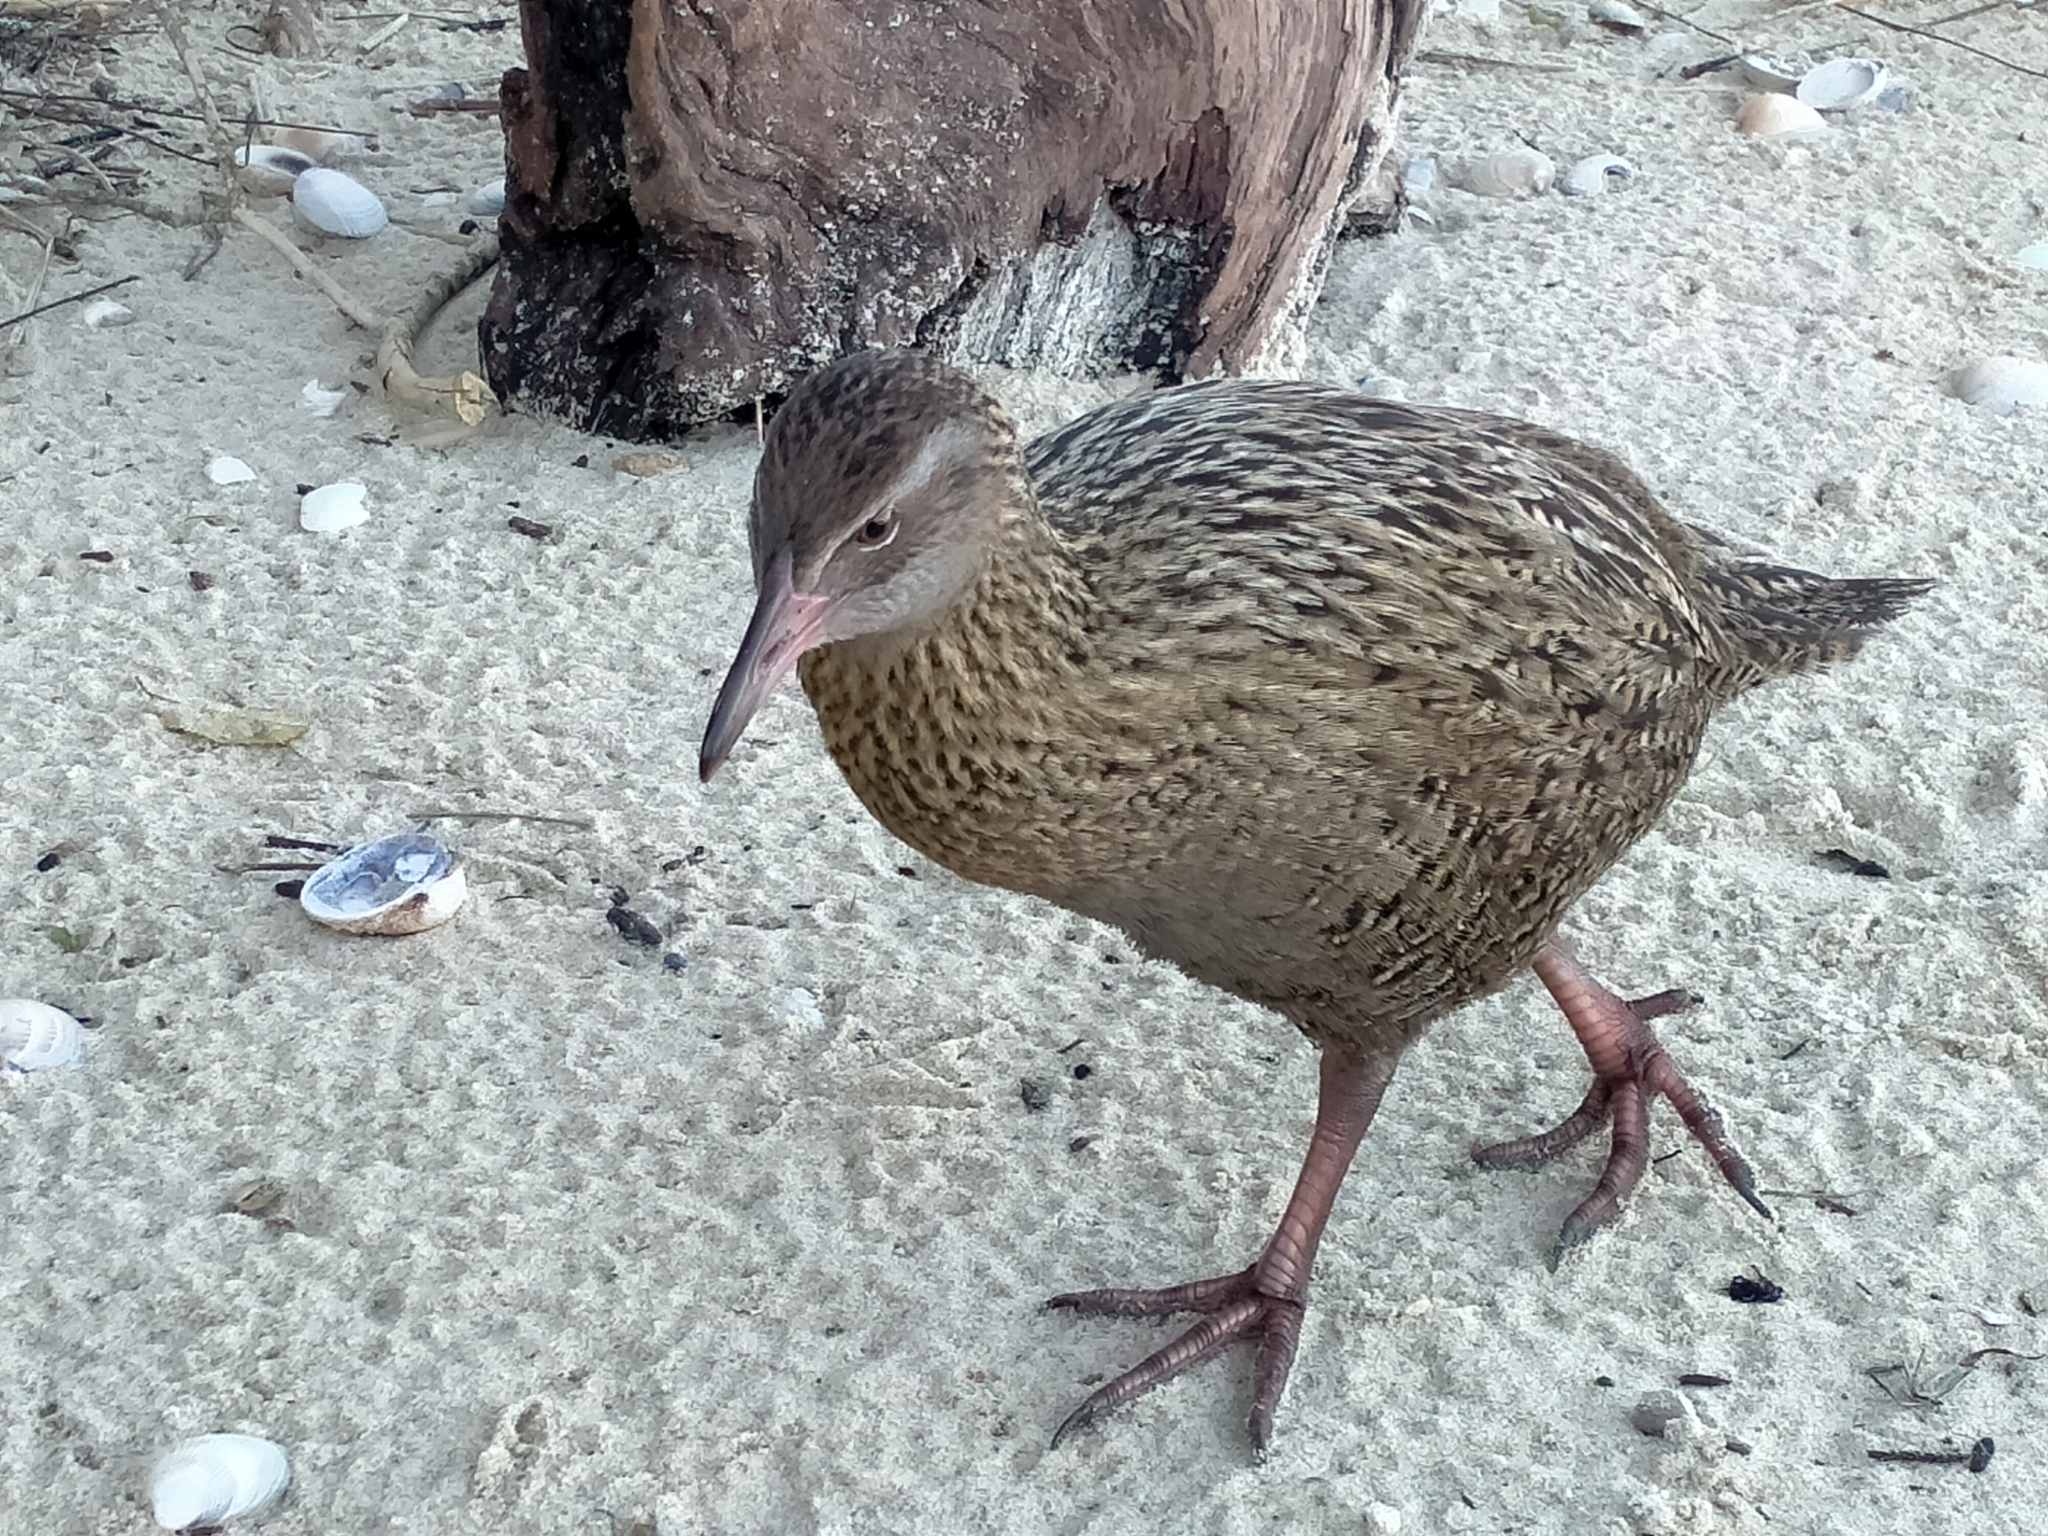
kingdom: Animalia
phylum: Chordata
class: Aves
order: Gruiformes
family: Rallidae
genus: Gallirallus
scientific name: Gallirallus australis
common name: Weka
